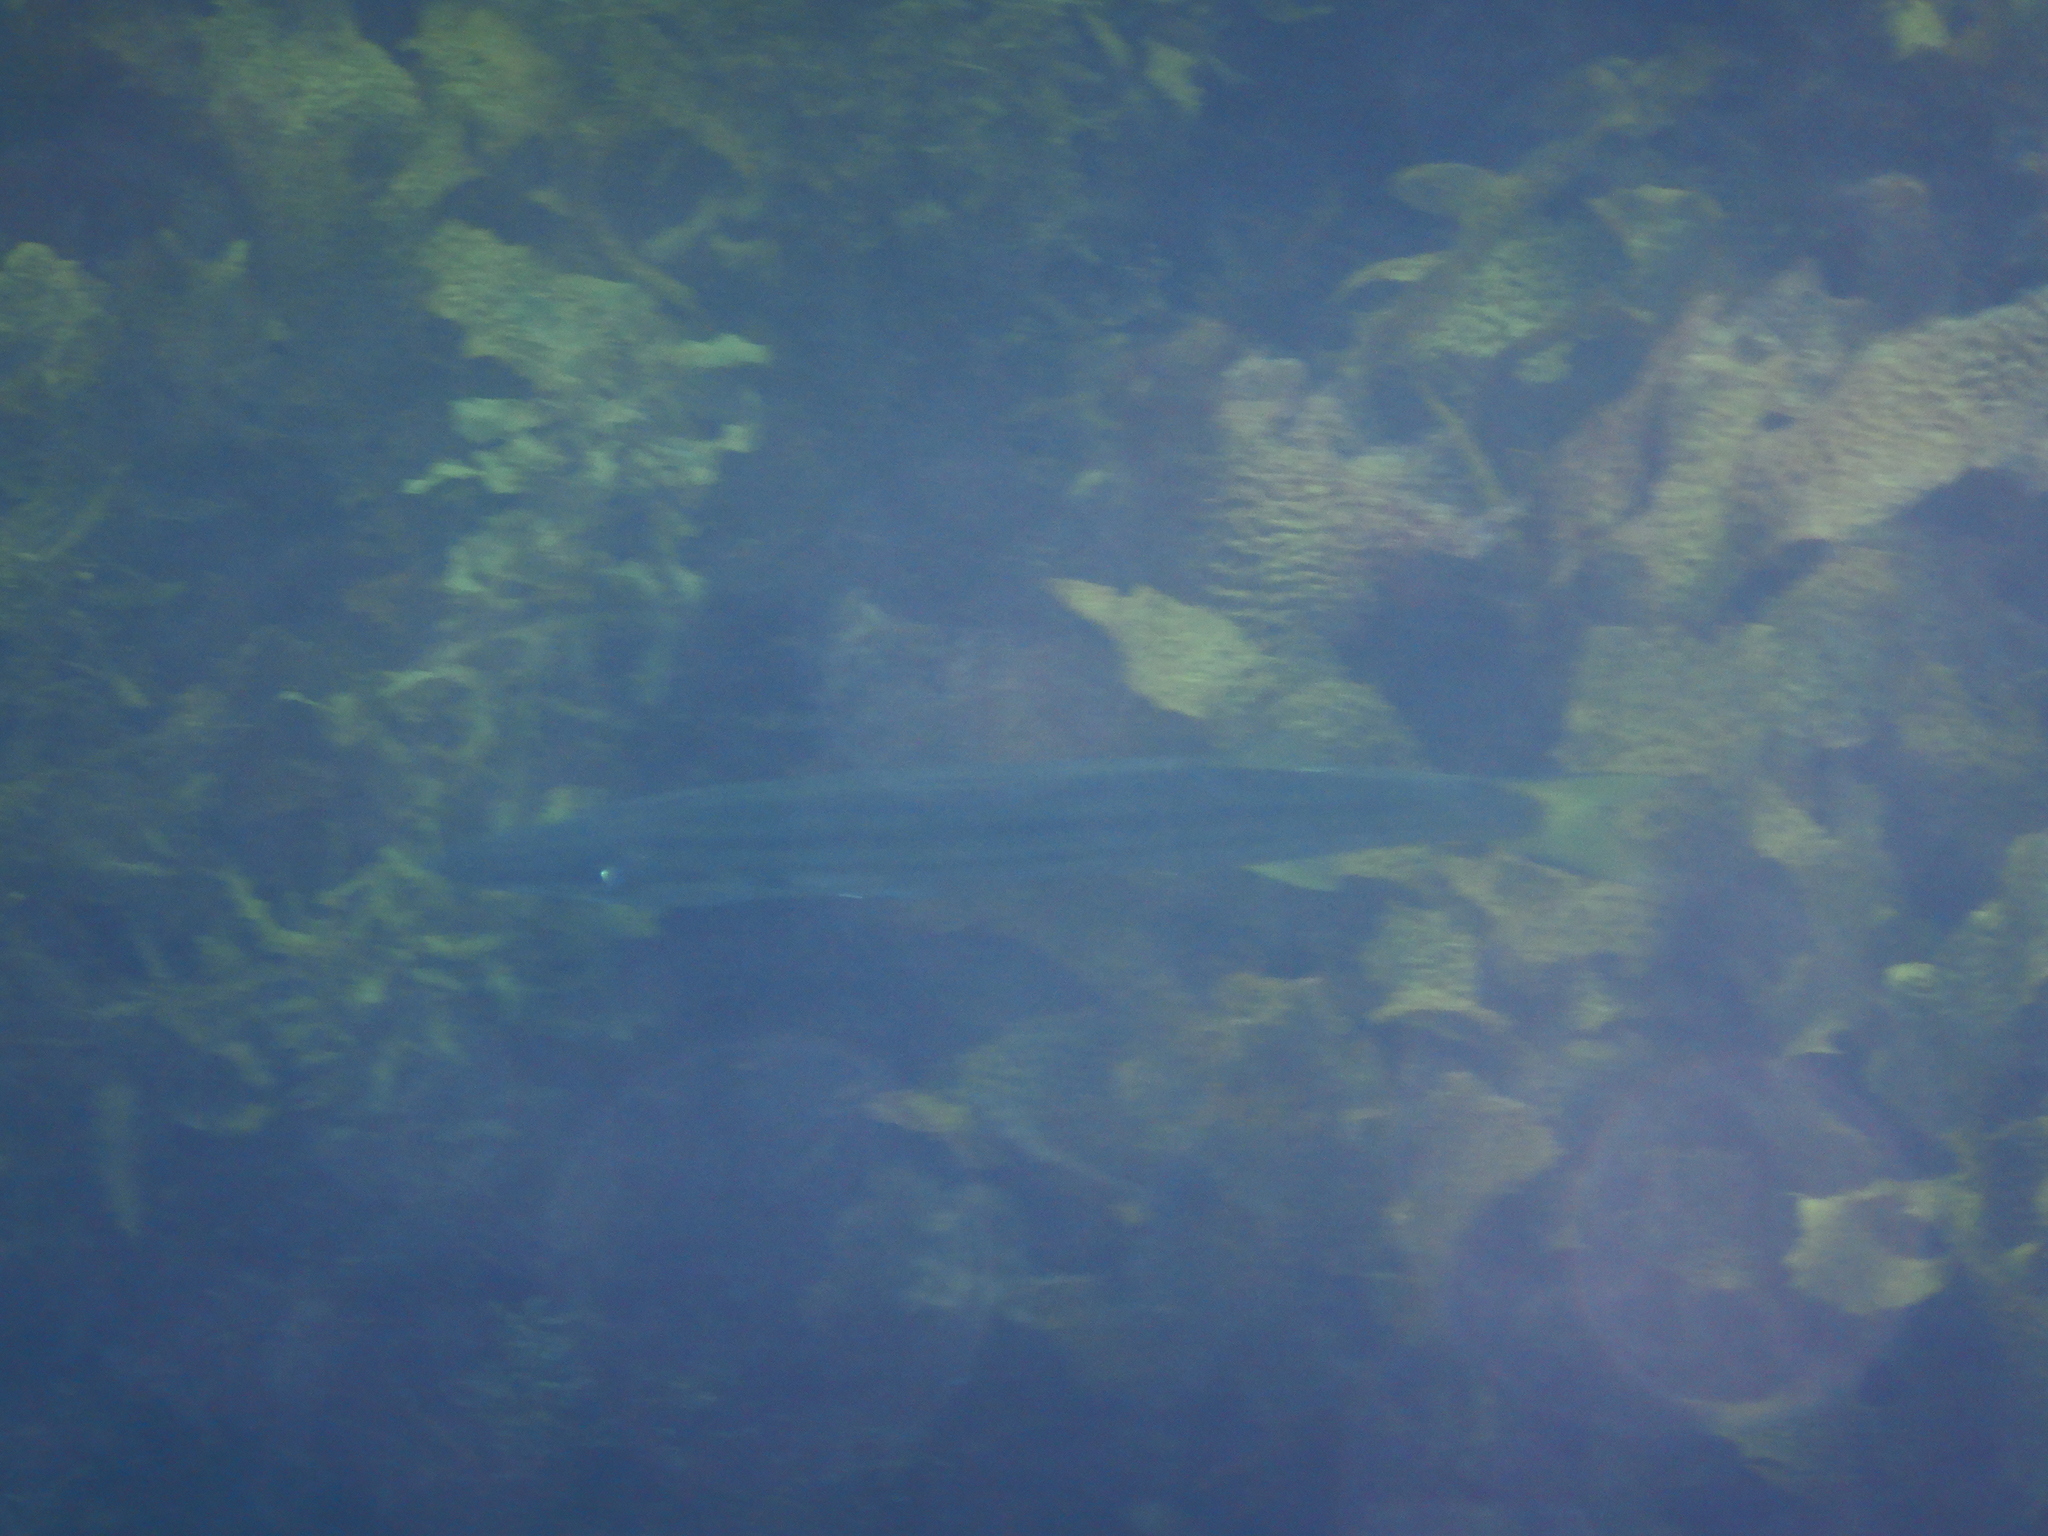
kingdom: Animalia
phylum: Chordata
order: Perciformes
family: Dinolestidae
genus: Dinolestes
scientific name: Dinolestes lewini
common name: Jack pike
